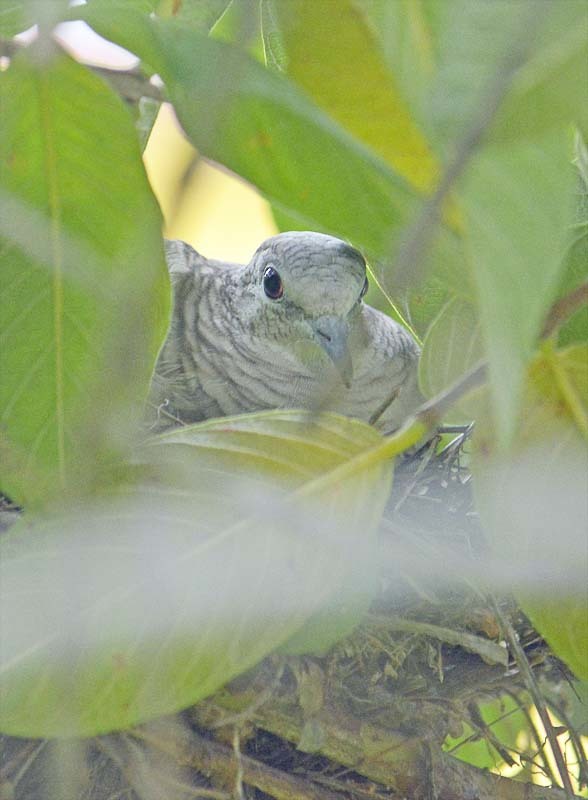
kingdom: Animalia
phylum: Chordata
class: Aves
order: Columbiformes
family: Columbidae
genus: Columbina
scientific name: Columbina inca
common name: Inca dove
